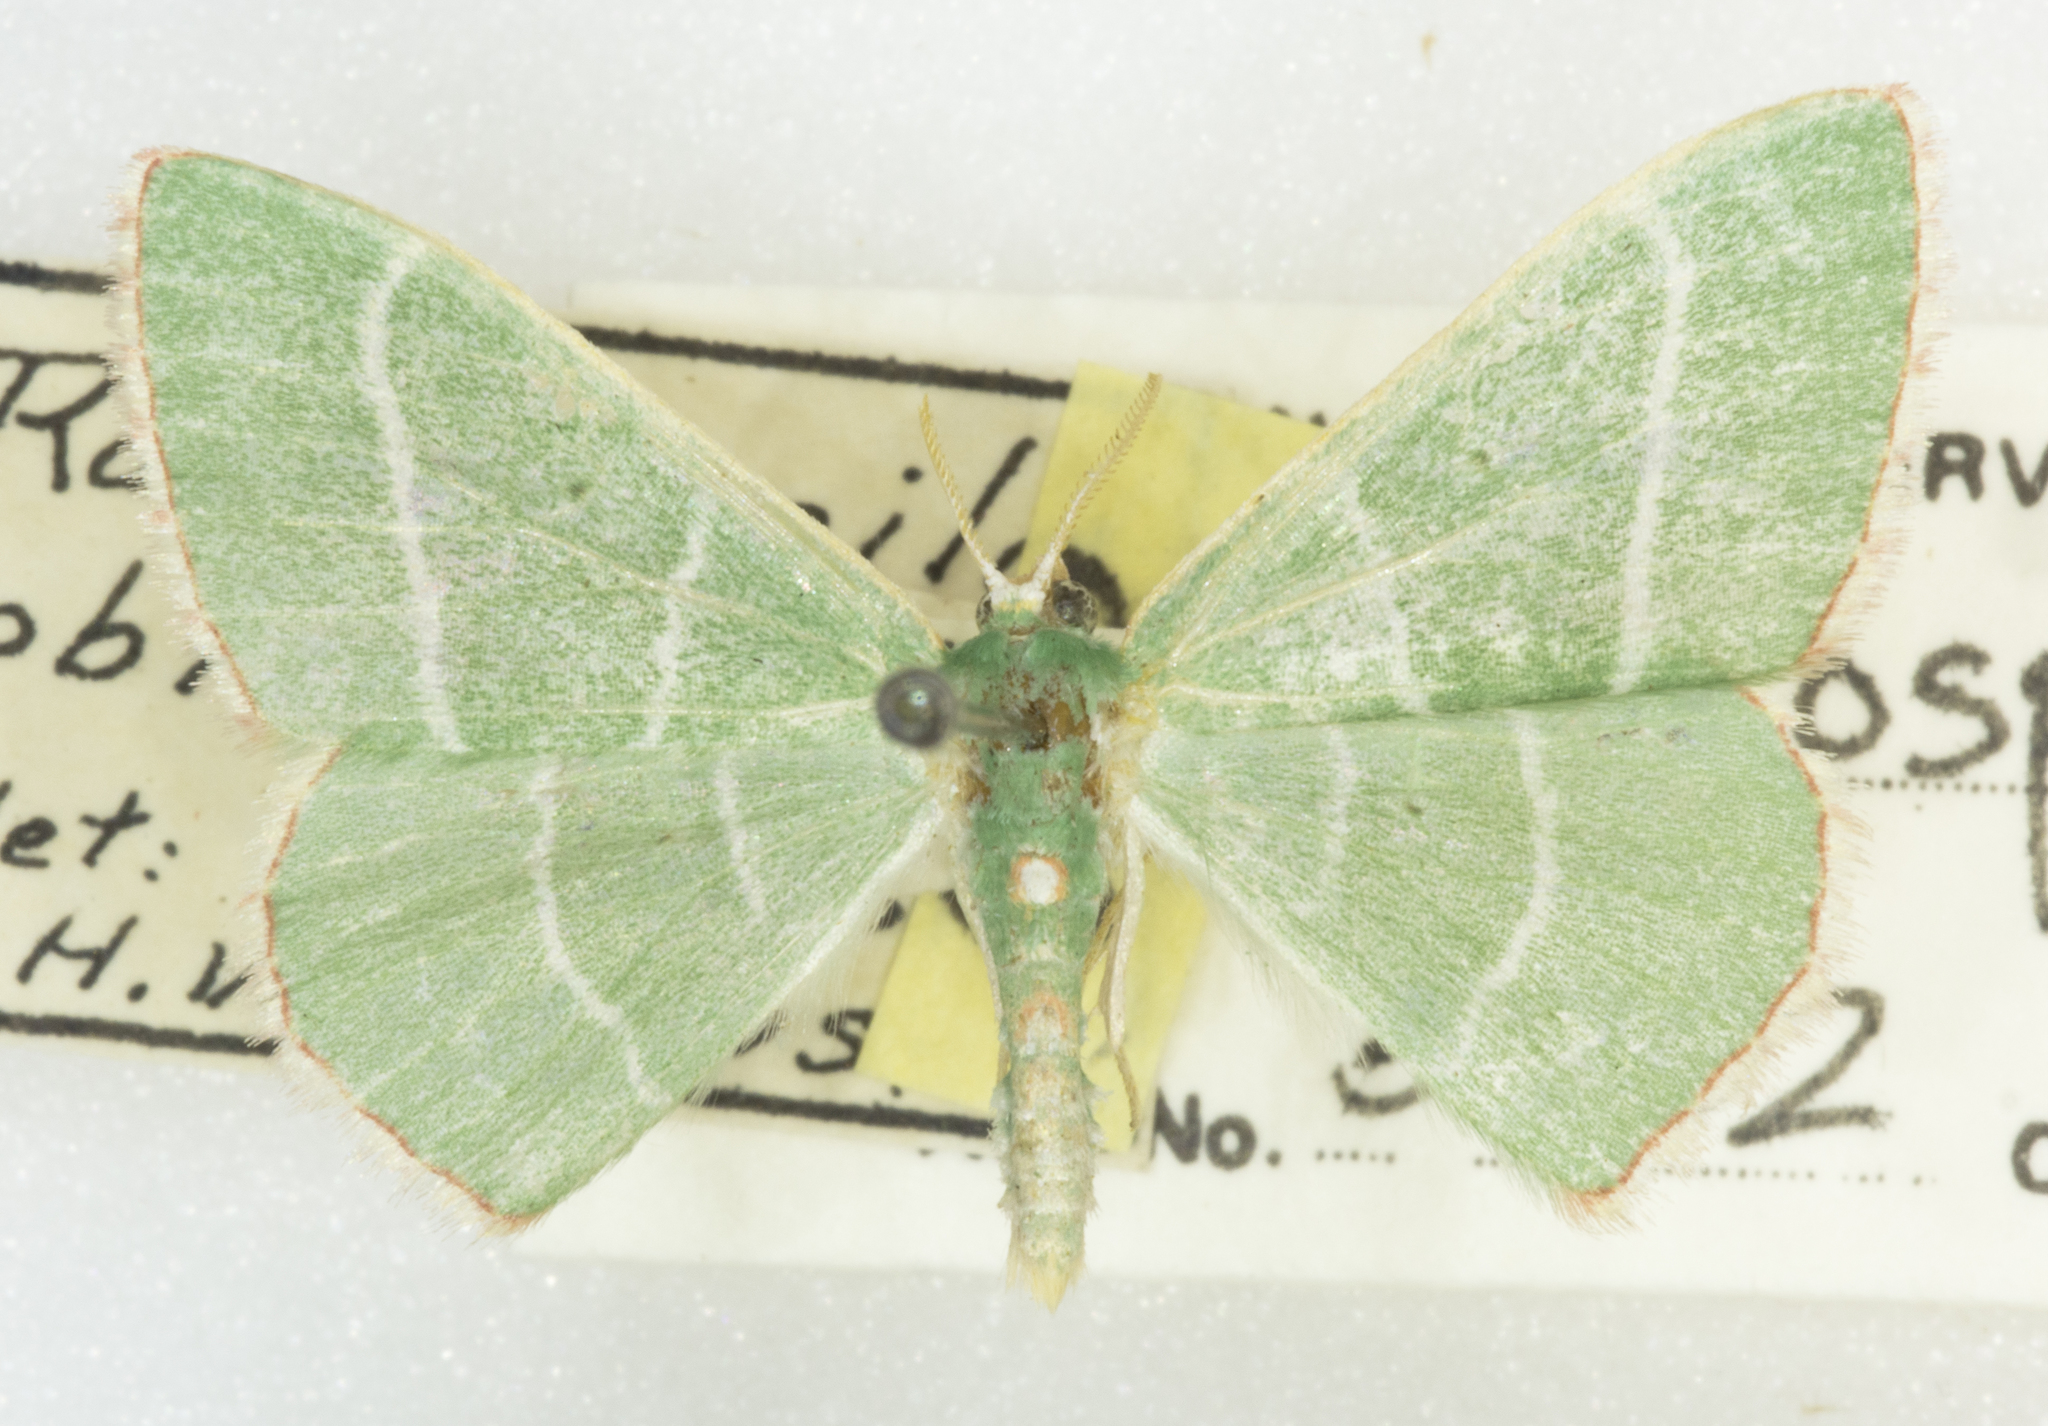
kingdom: Animalia
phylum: Arthropoda
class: Insecta
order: Lepidoptera
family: Geometridae
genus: Nemoria
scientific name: Nemoria obliqua
